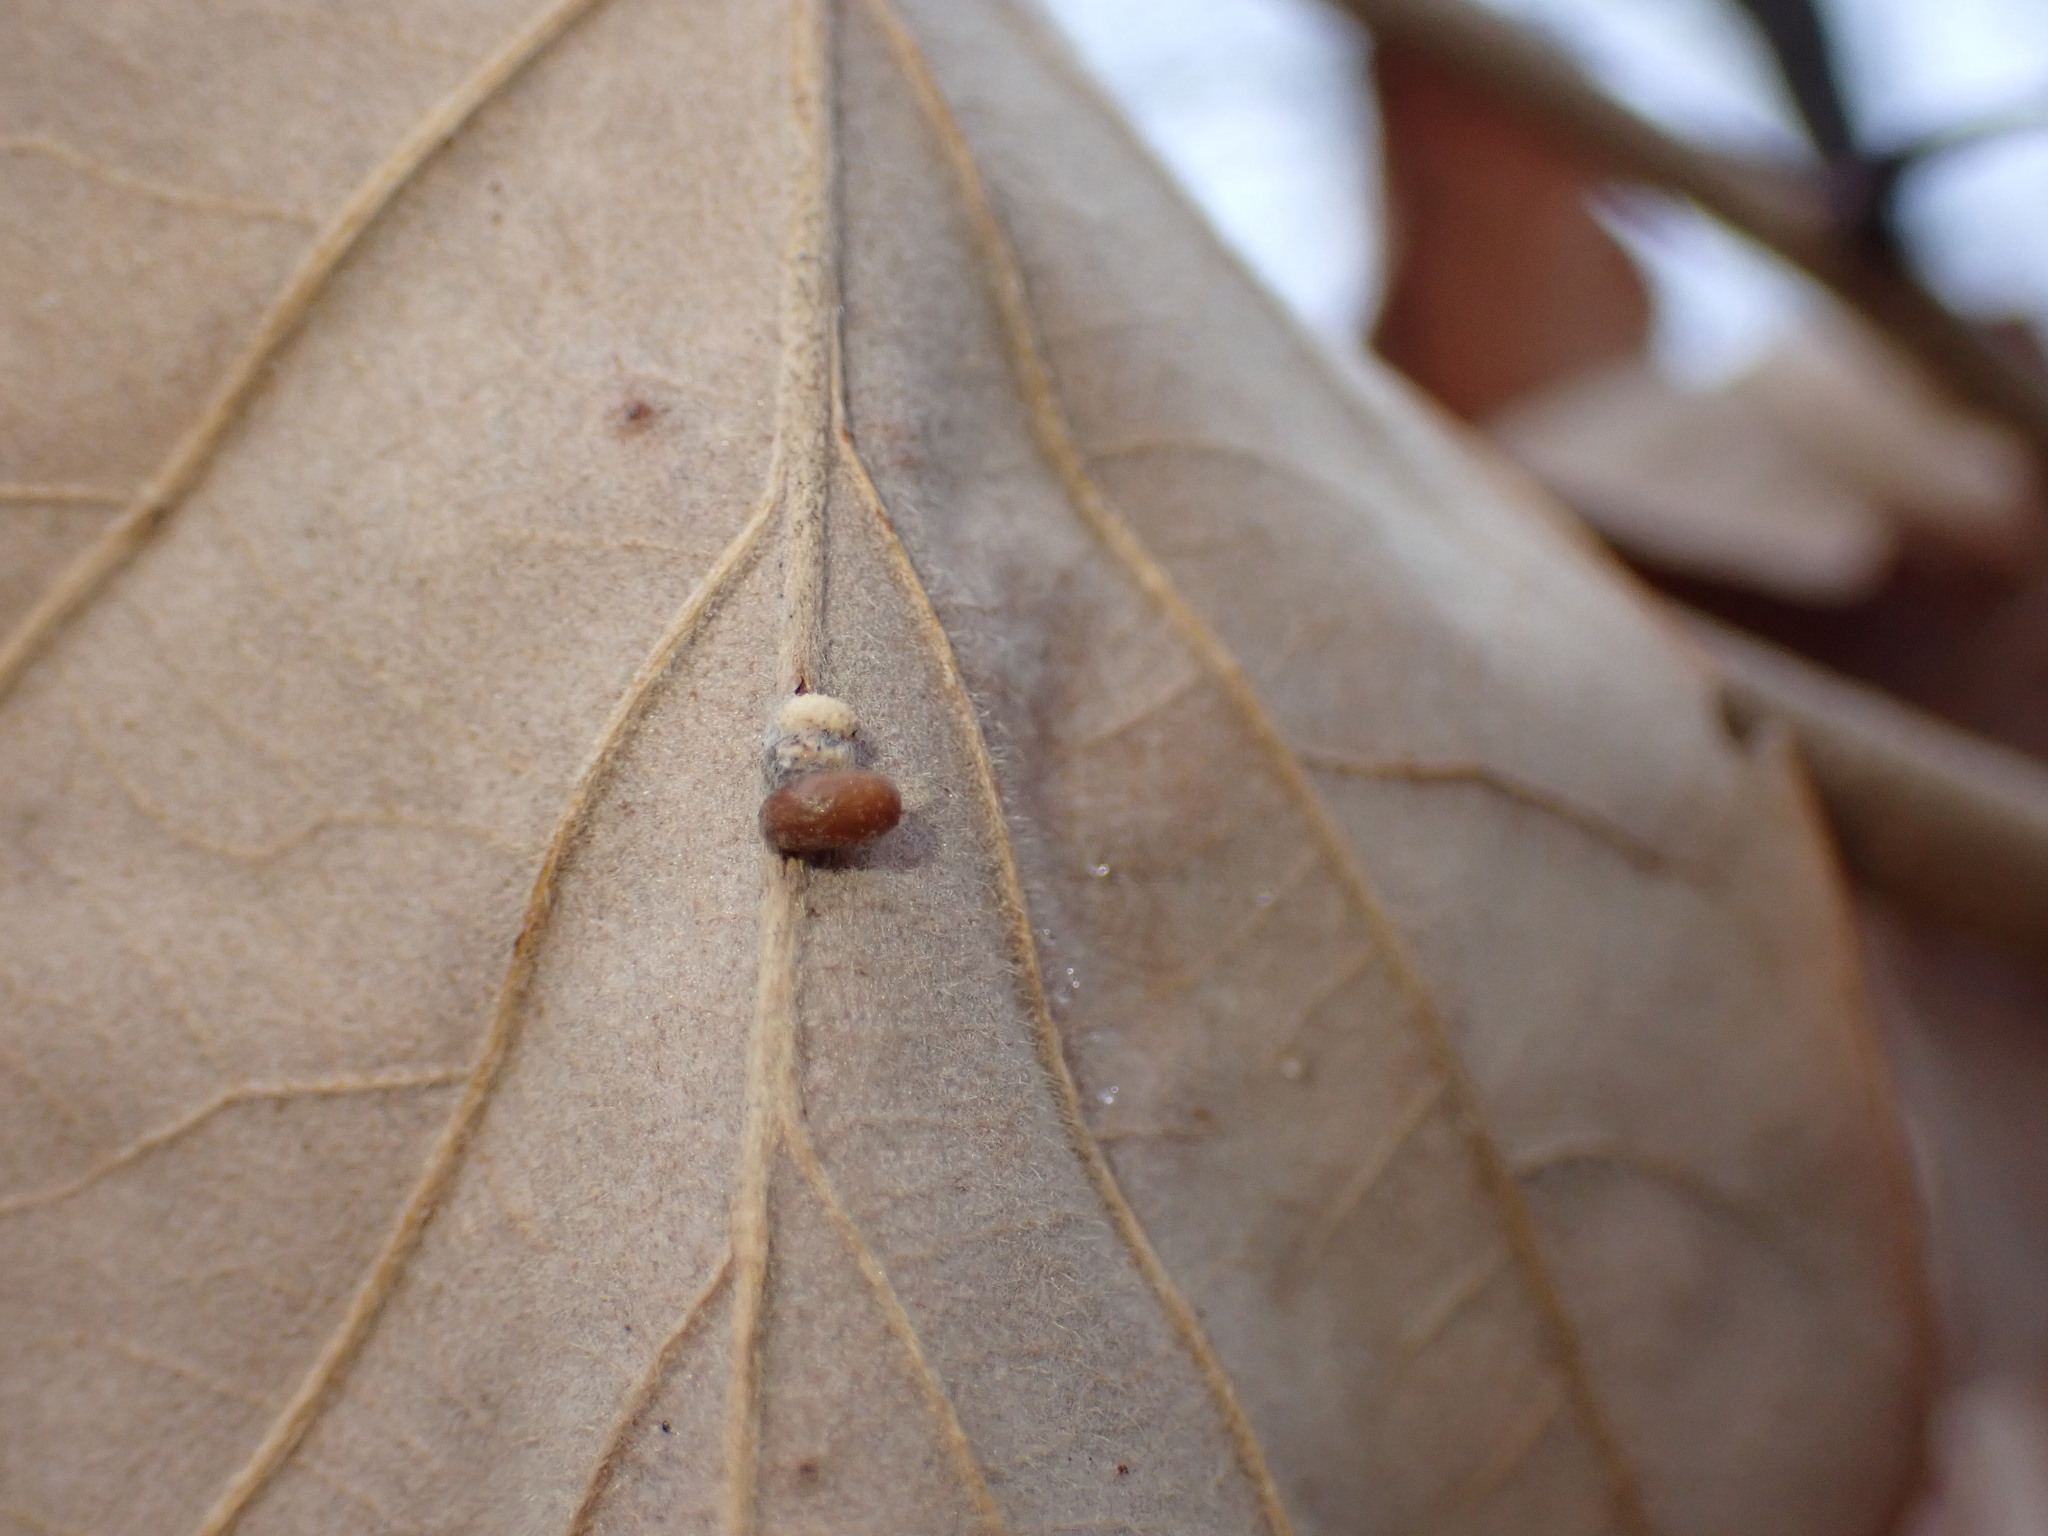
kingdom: Animalia
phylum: Arthropoda
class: Insecta
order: Hymenoptera
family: Cynipidae
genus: Andricus
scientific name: Andricus Druon ignotum
